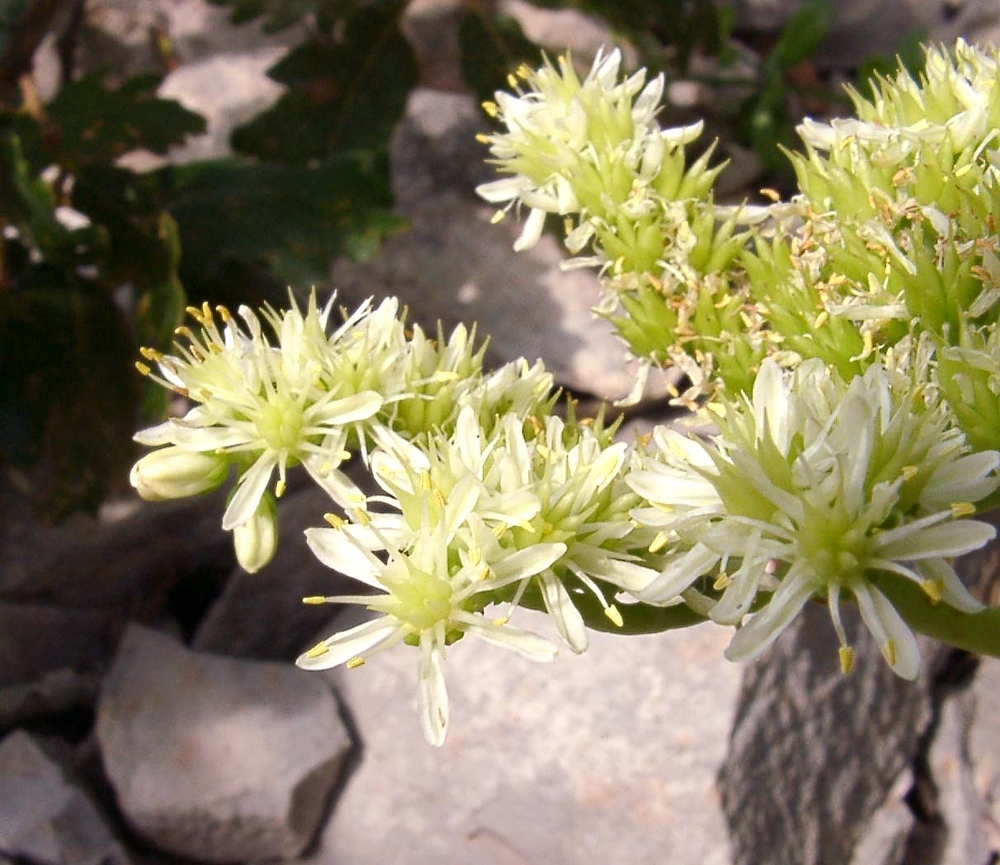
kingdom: Plantae
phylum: Tracheophyta
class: Magnoliopsida
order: Saxifragales
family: Crassulaceae
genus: Petrosedum
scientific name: Petrosedum sediforme
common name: Pale stonecrop
